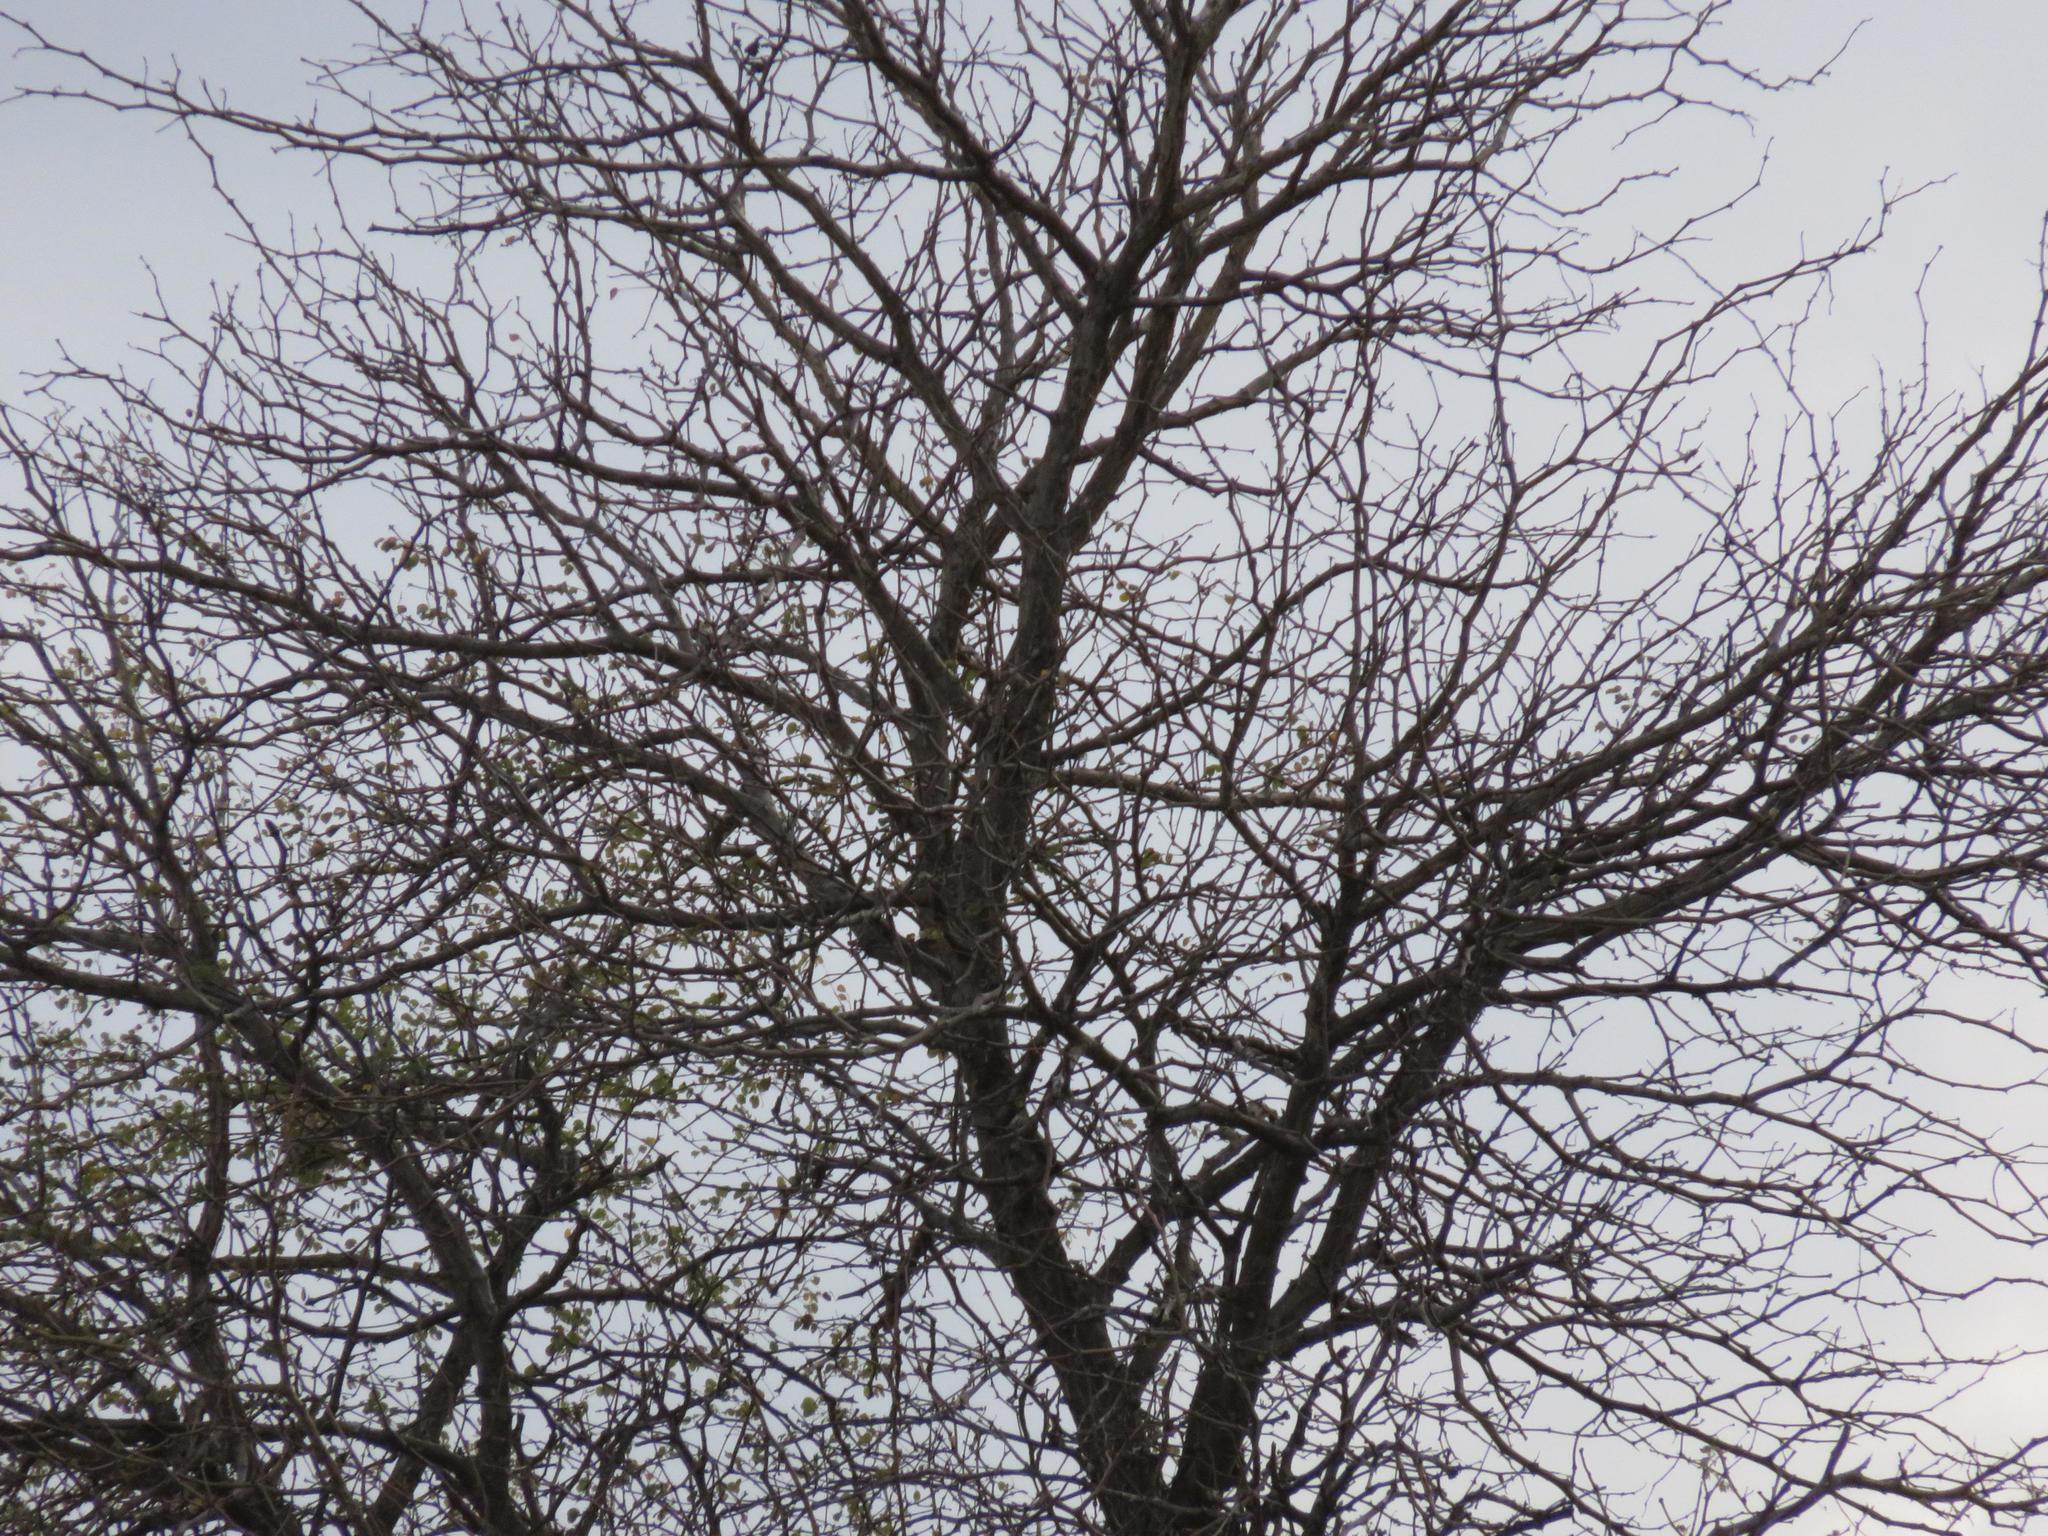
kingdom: Plantae
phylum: Tracheophyta
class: Magnoliopsida
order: Fabales
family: Fabaceae
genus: Senegalia
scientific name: Senegalia nigrescens
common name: Knobthorn
